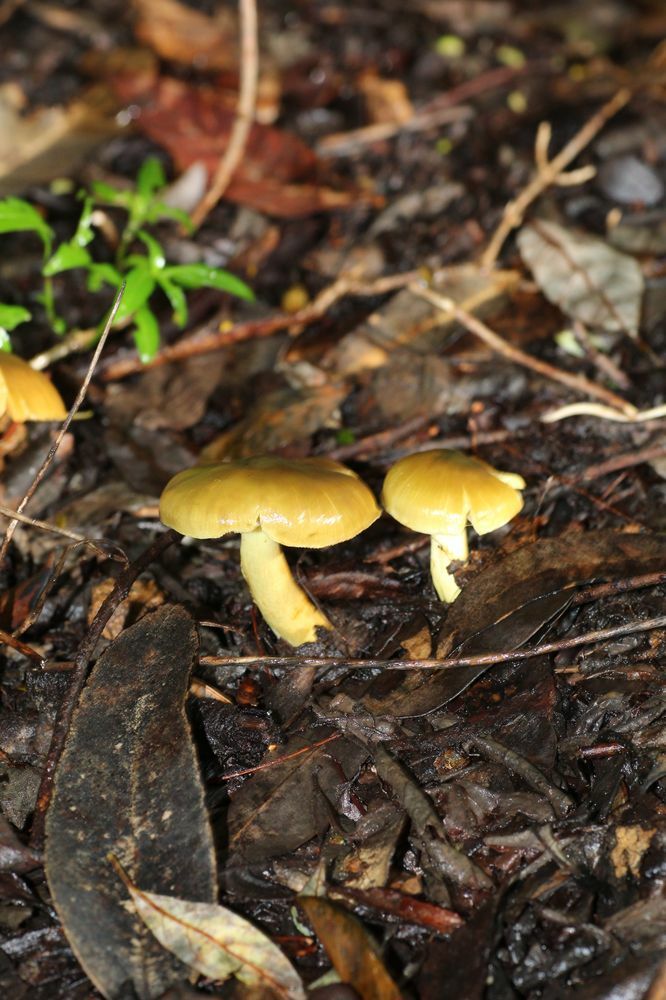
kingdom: Fungi
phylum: Basidiomycota
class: Agaricomycetes
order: Agaricales
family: Cortinariaceae
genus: Cortinarius
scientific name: Cortinarius austrovenetus
